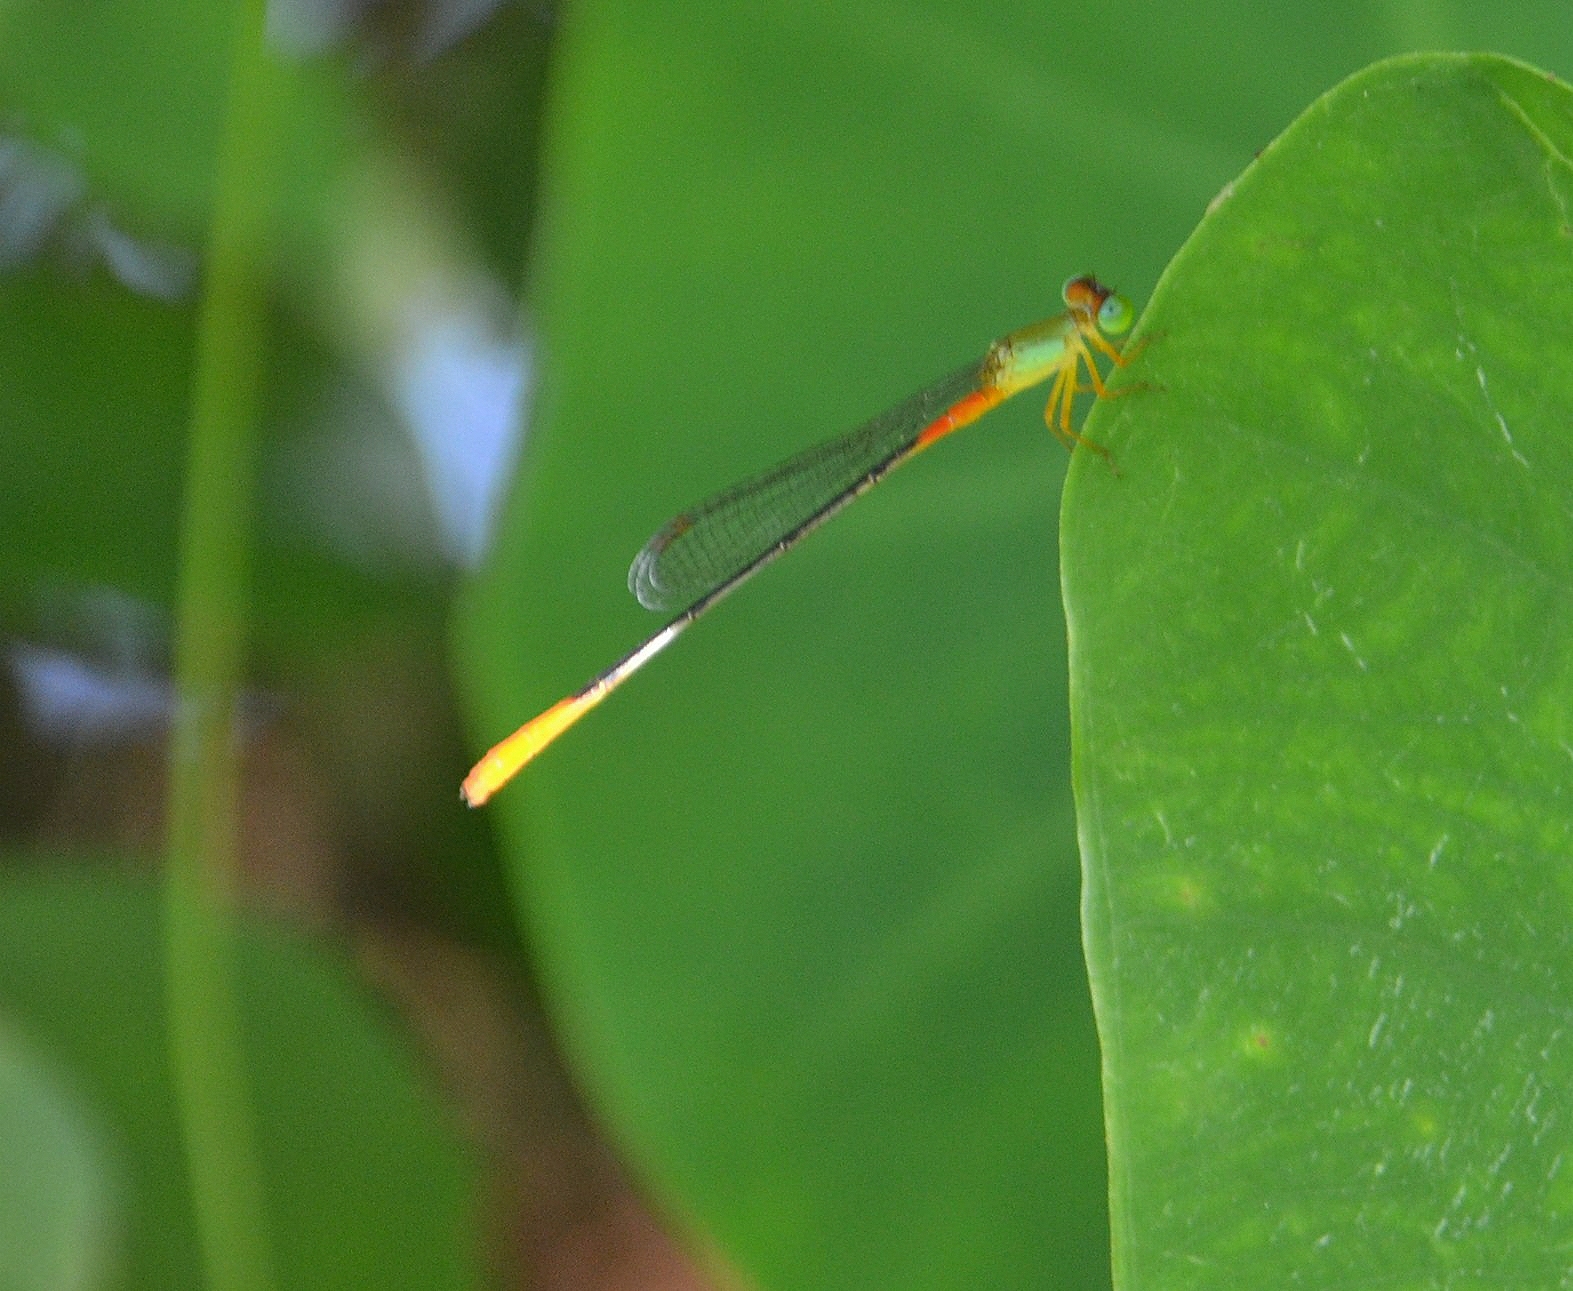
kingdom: Animalia
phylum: Arthropoda
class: Insecta
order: Odonata
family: Coenagrionidae
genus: Ceriagrion
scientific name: Ceriagrion cerinorubellum
